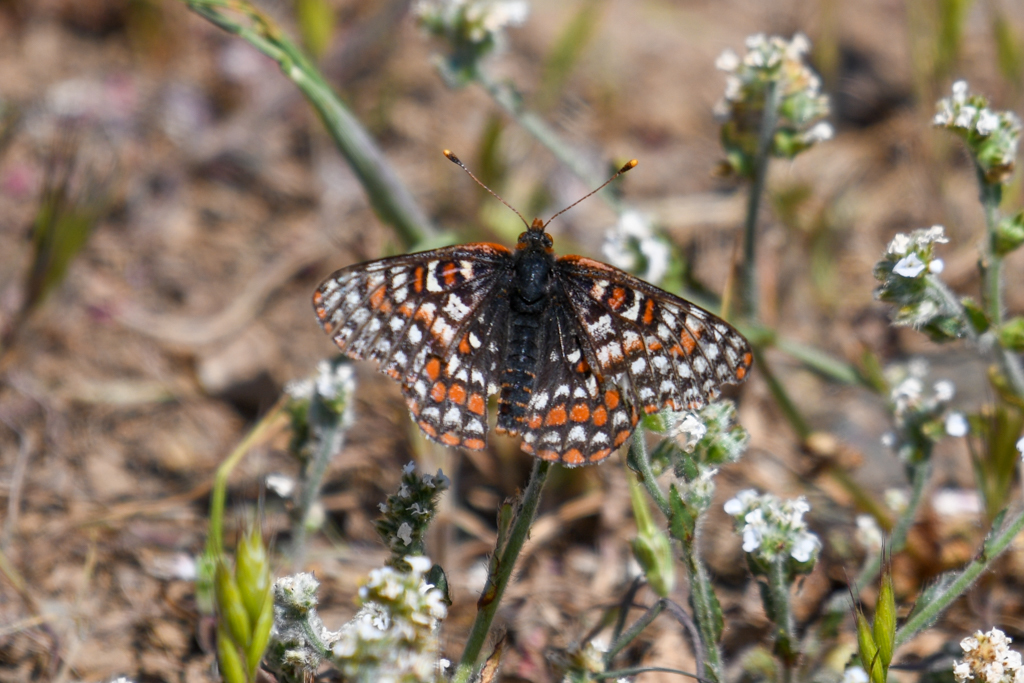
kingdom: Animalia
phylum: Arthropoda
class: Insecta
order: Lepidoptera
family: Nymphalidae
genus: Occidryas
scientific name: Occidryas editha
